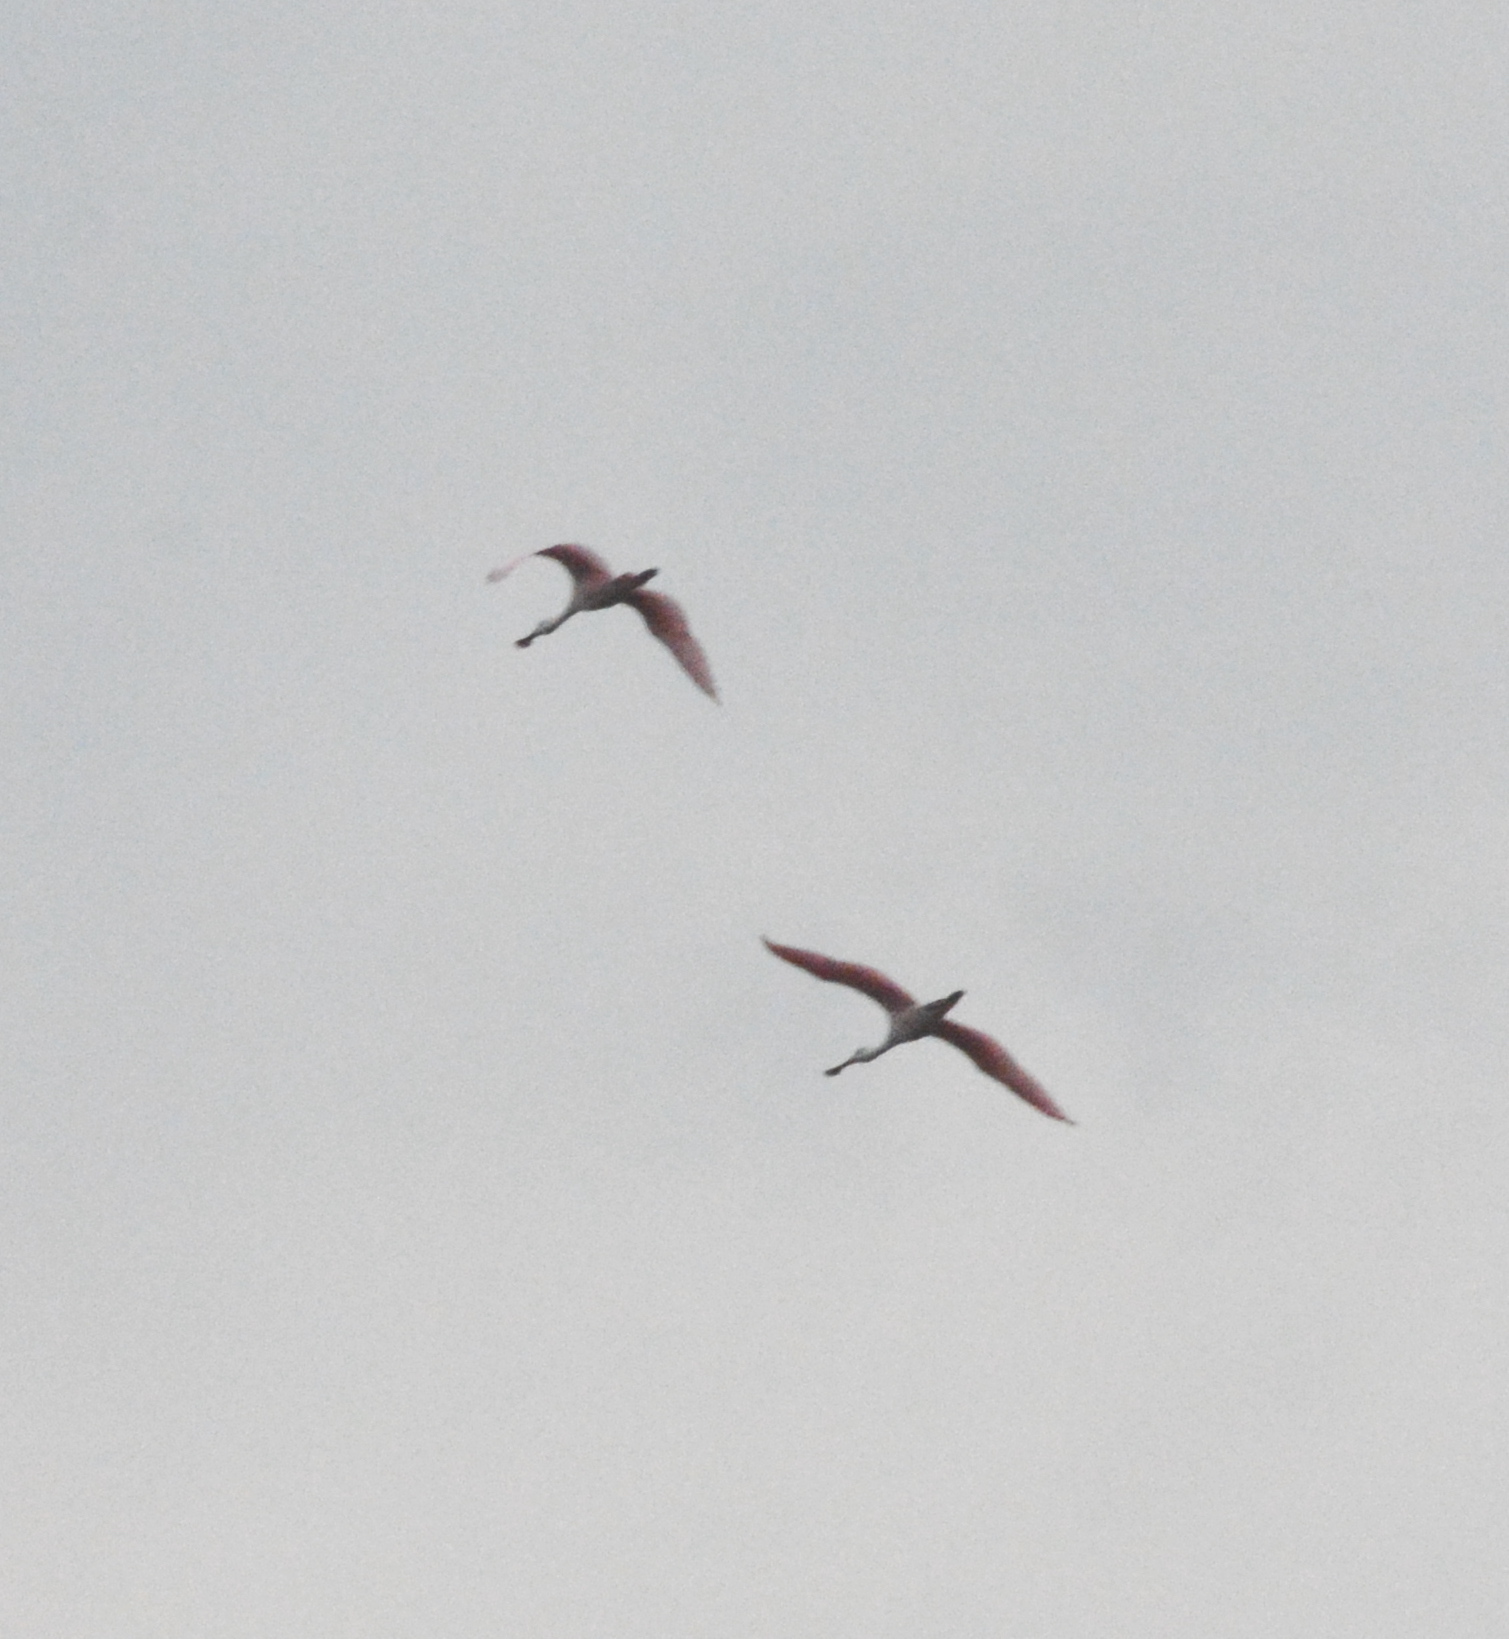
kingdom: Animalia
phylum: Chordata
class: Aves
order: Pelecaniformes
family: Threskiornithidae
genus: Platalea
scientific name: Platalea ajaja
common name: Roseate spoonbill
